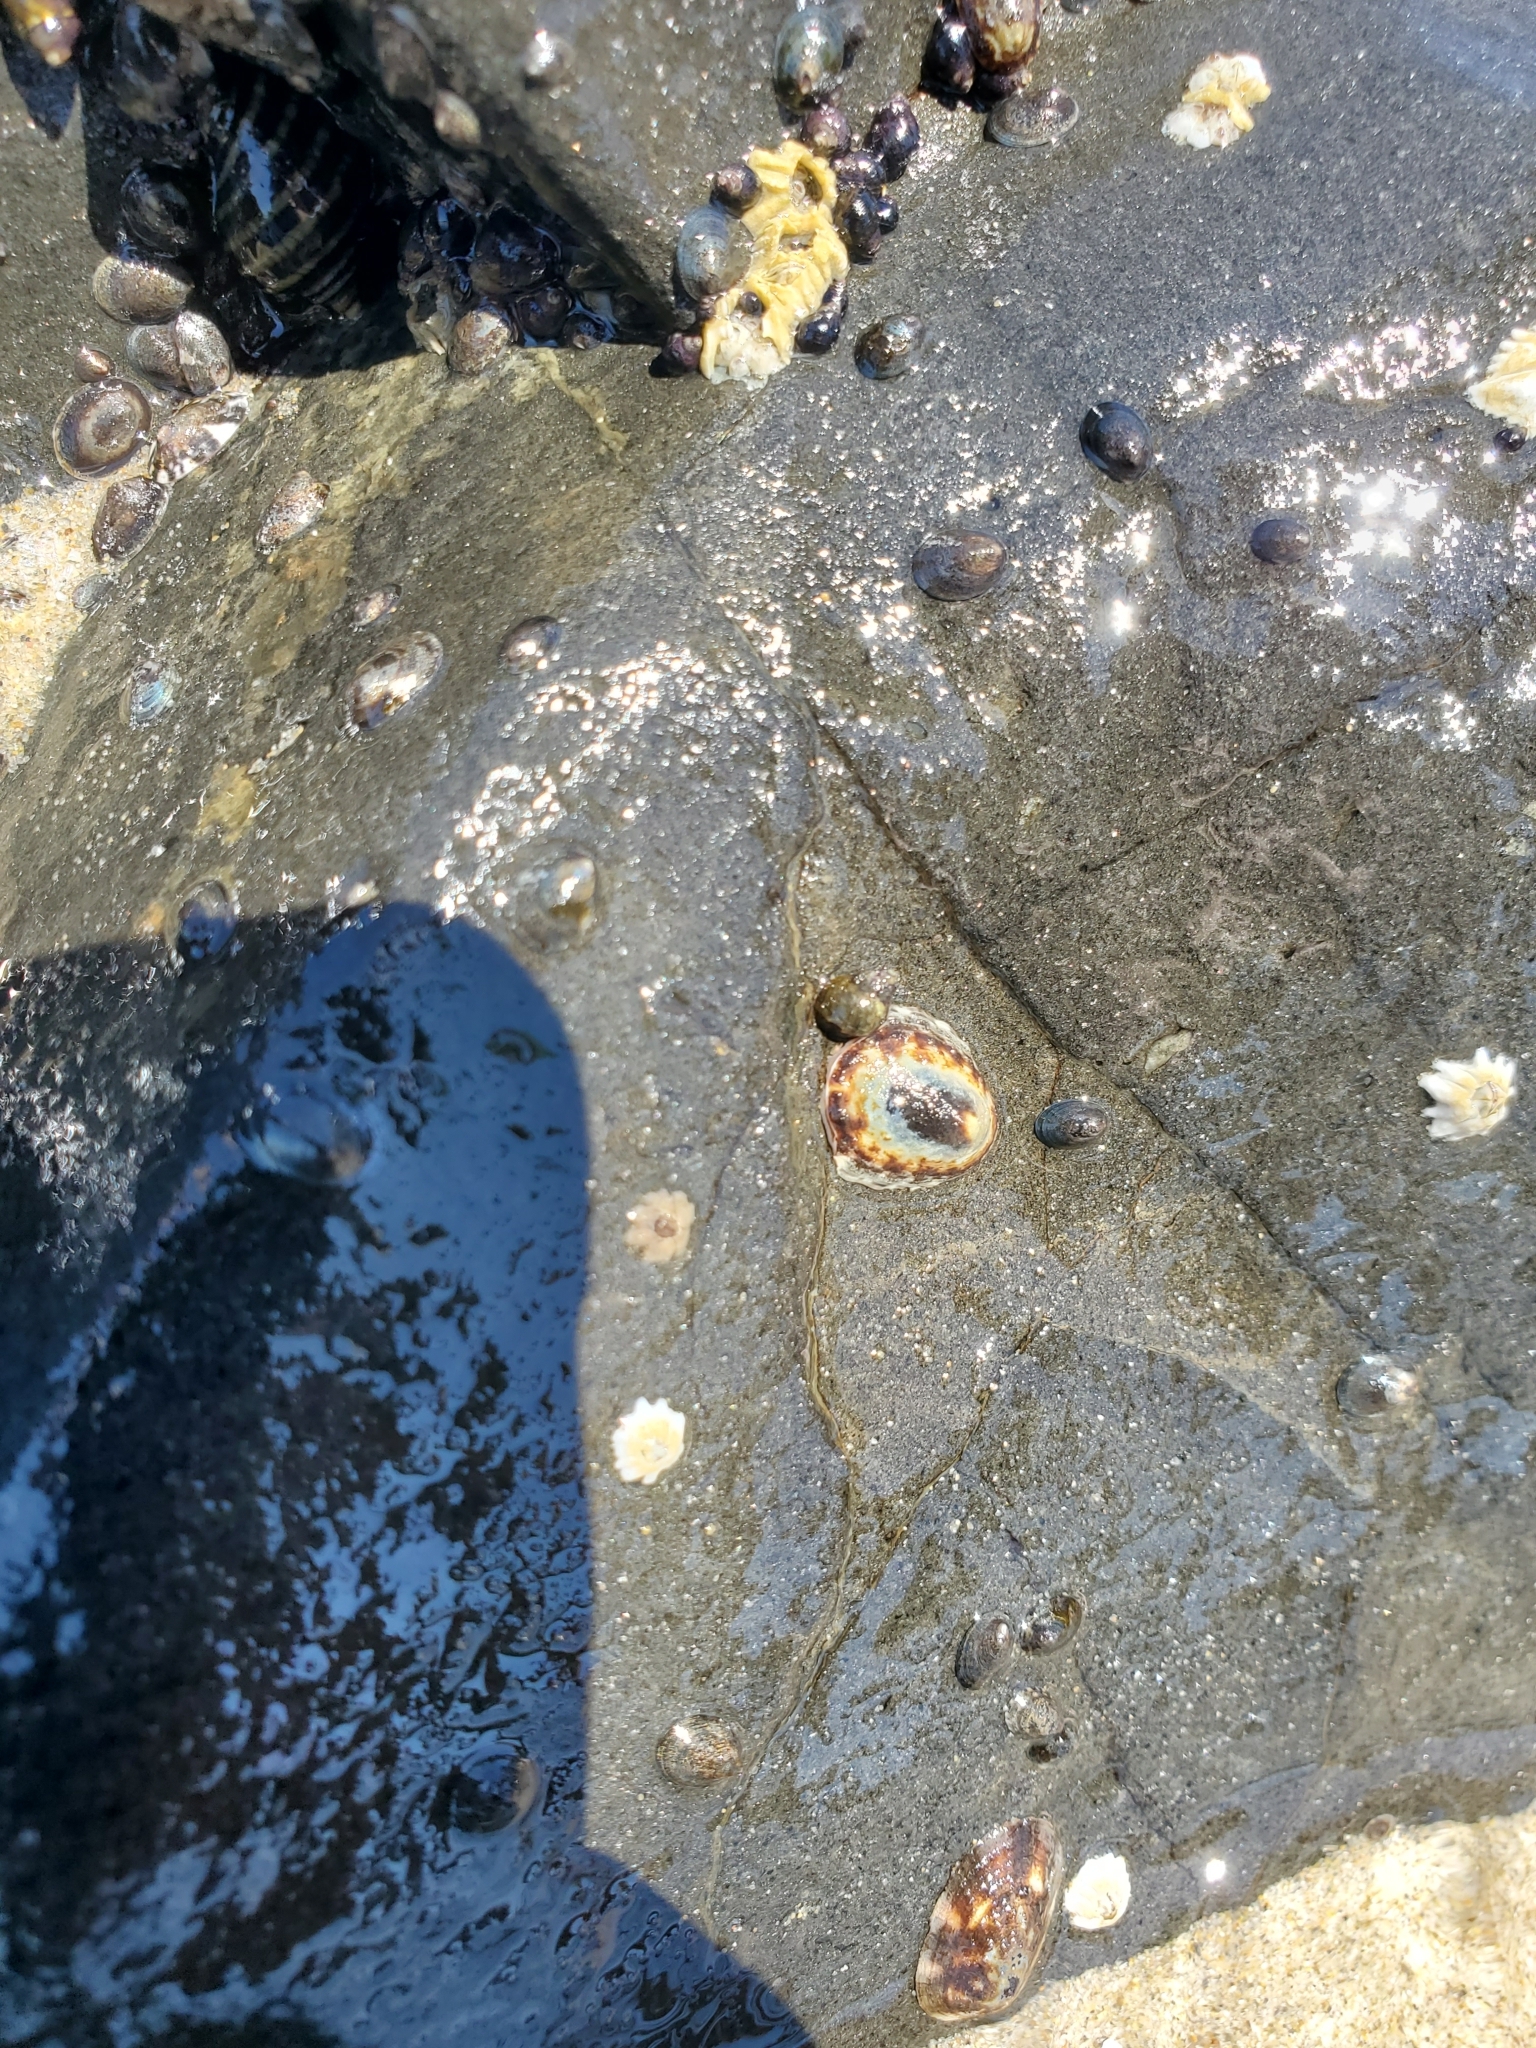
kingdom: Animalia
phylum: Mollusca
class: Gastropoda
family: Lottiidae
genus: Lottia
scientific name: Lottia pelta
